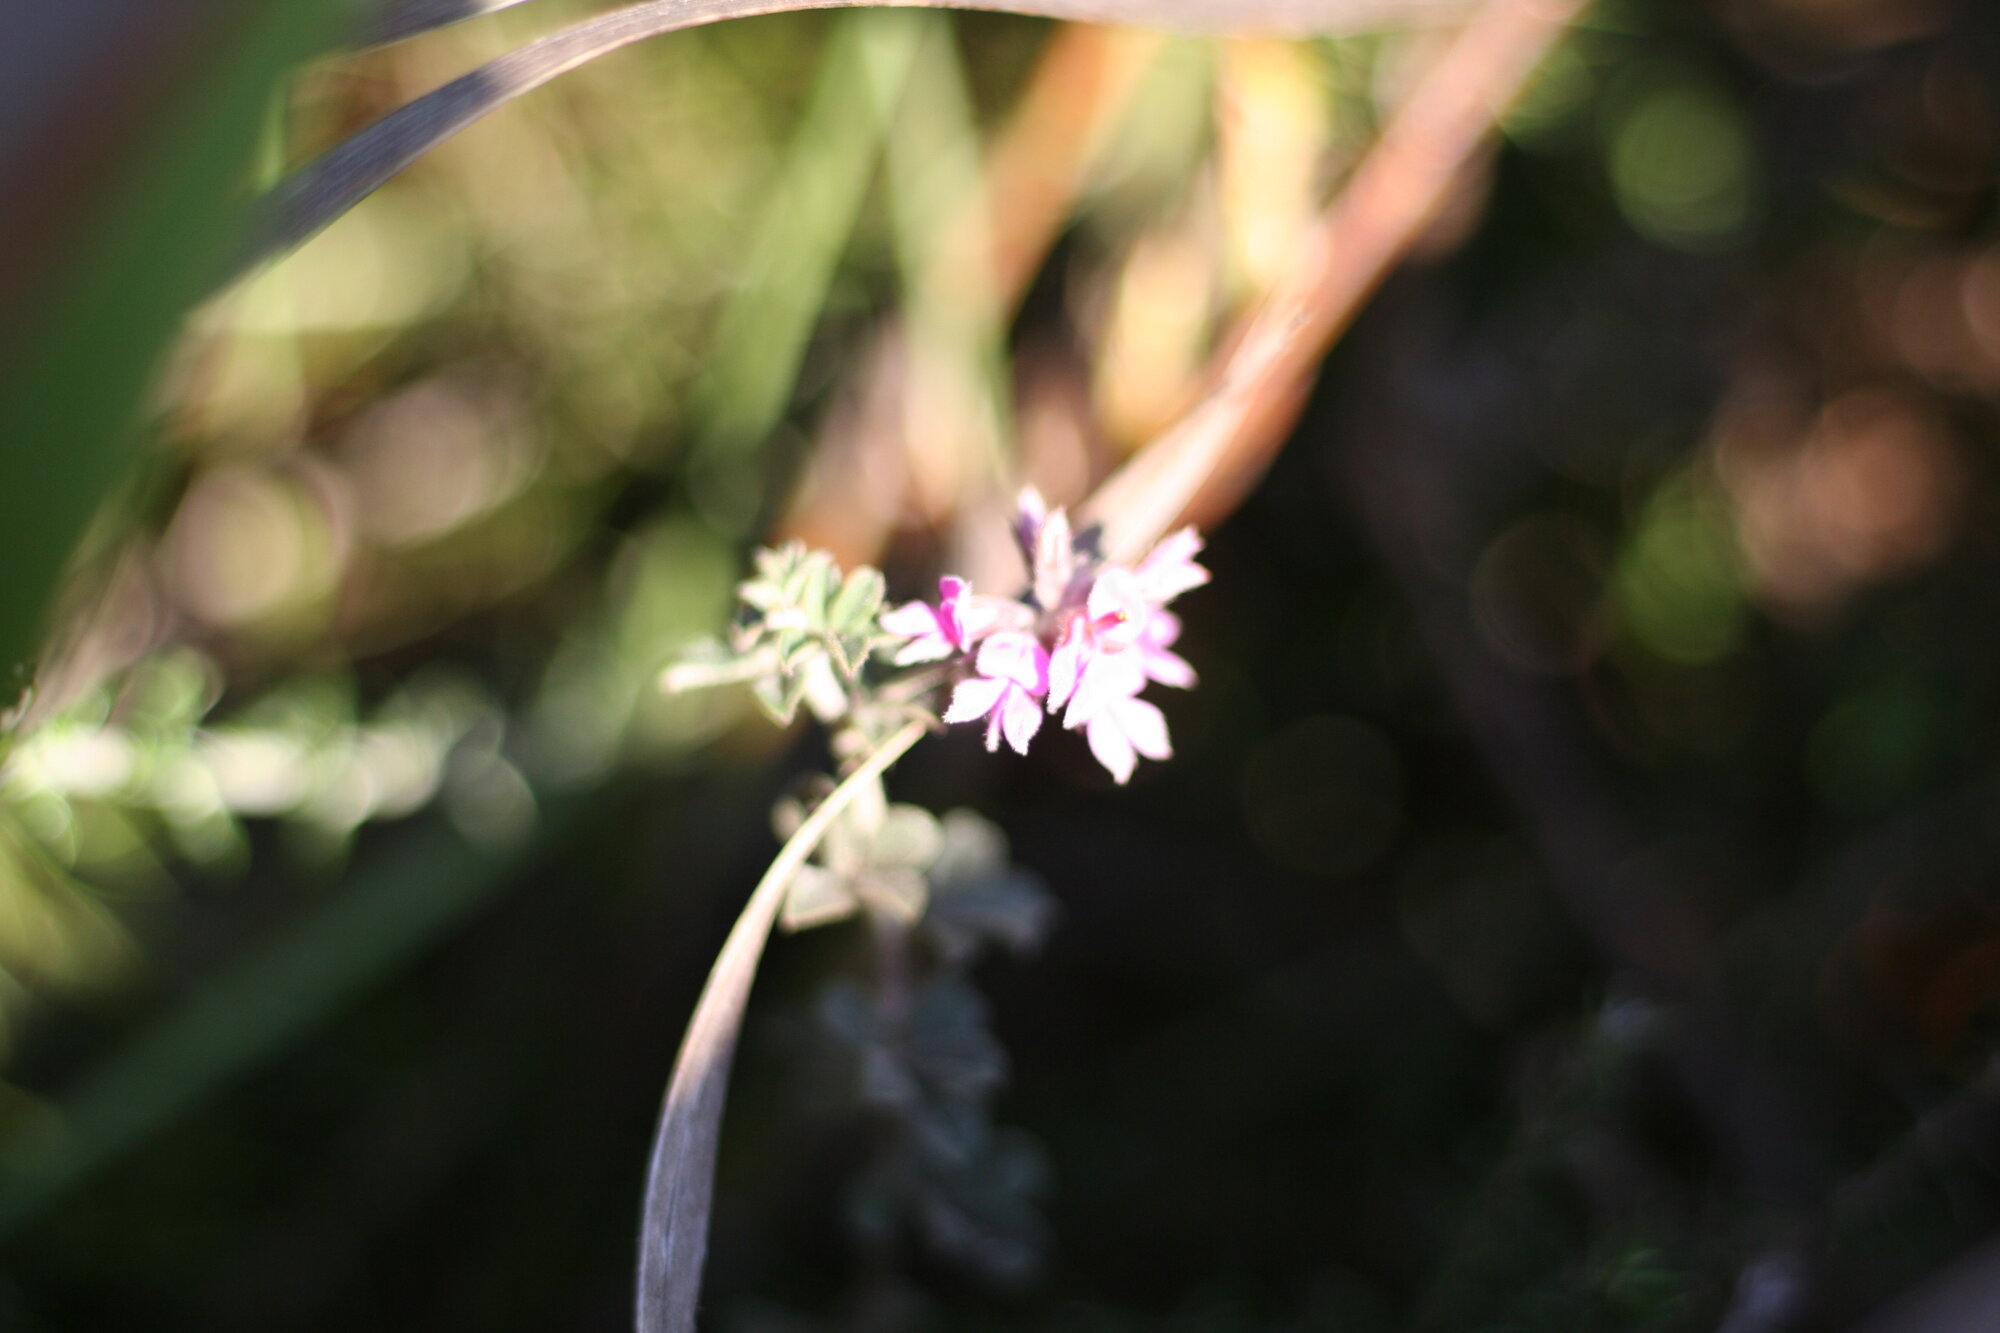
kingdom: Plantae
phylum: Tracheophyta
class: Magnoliopsida
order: Fabales
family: Fabaceae
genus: Indigofera
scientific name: Indigofera mauritanica
